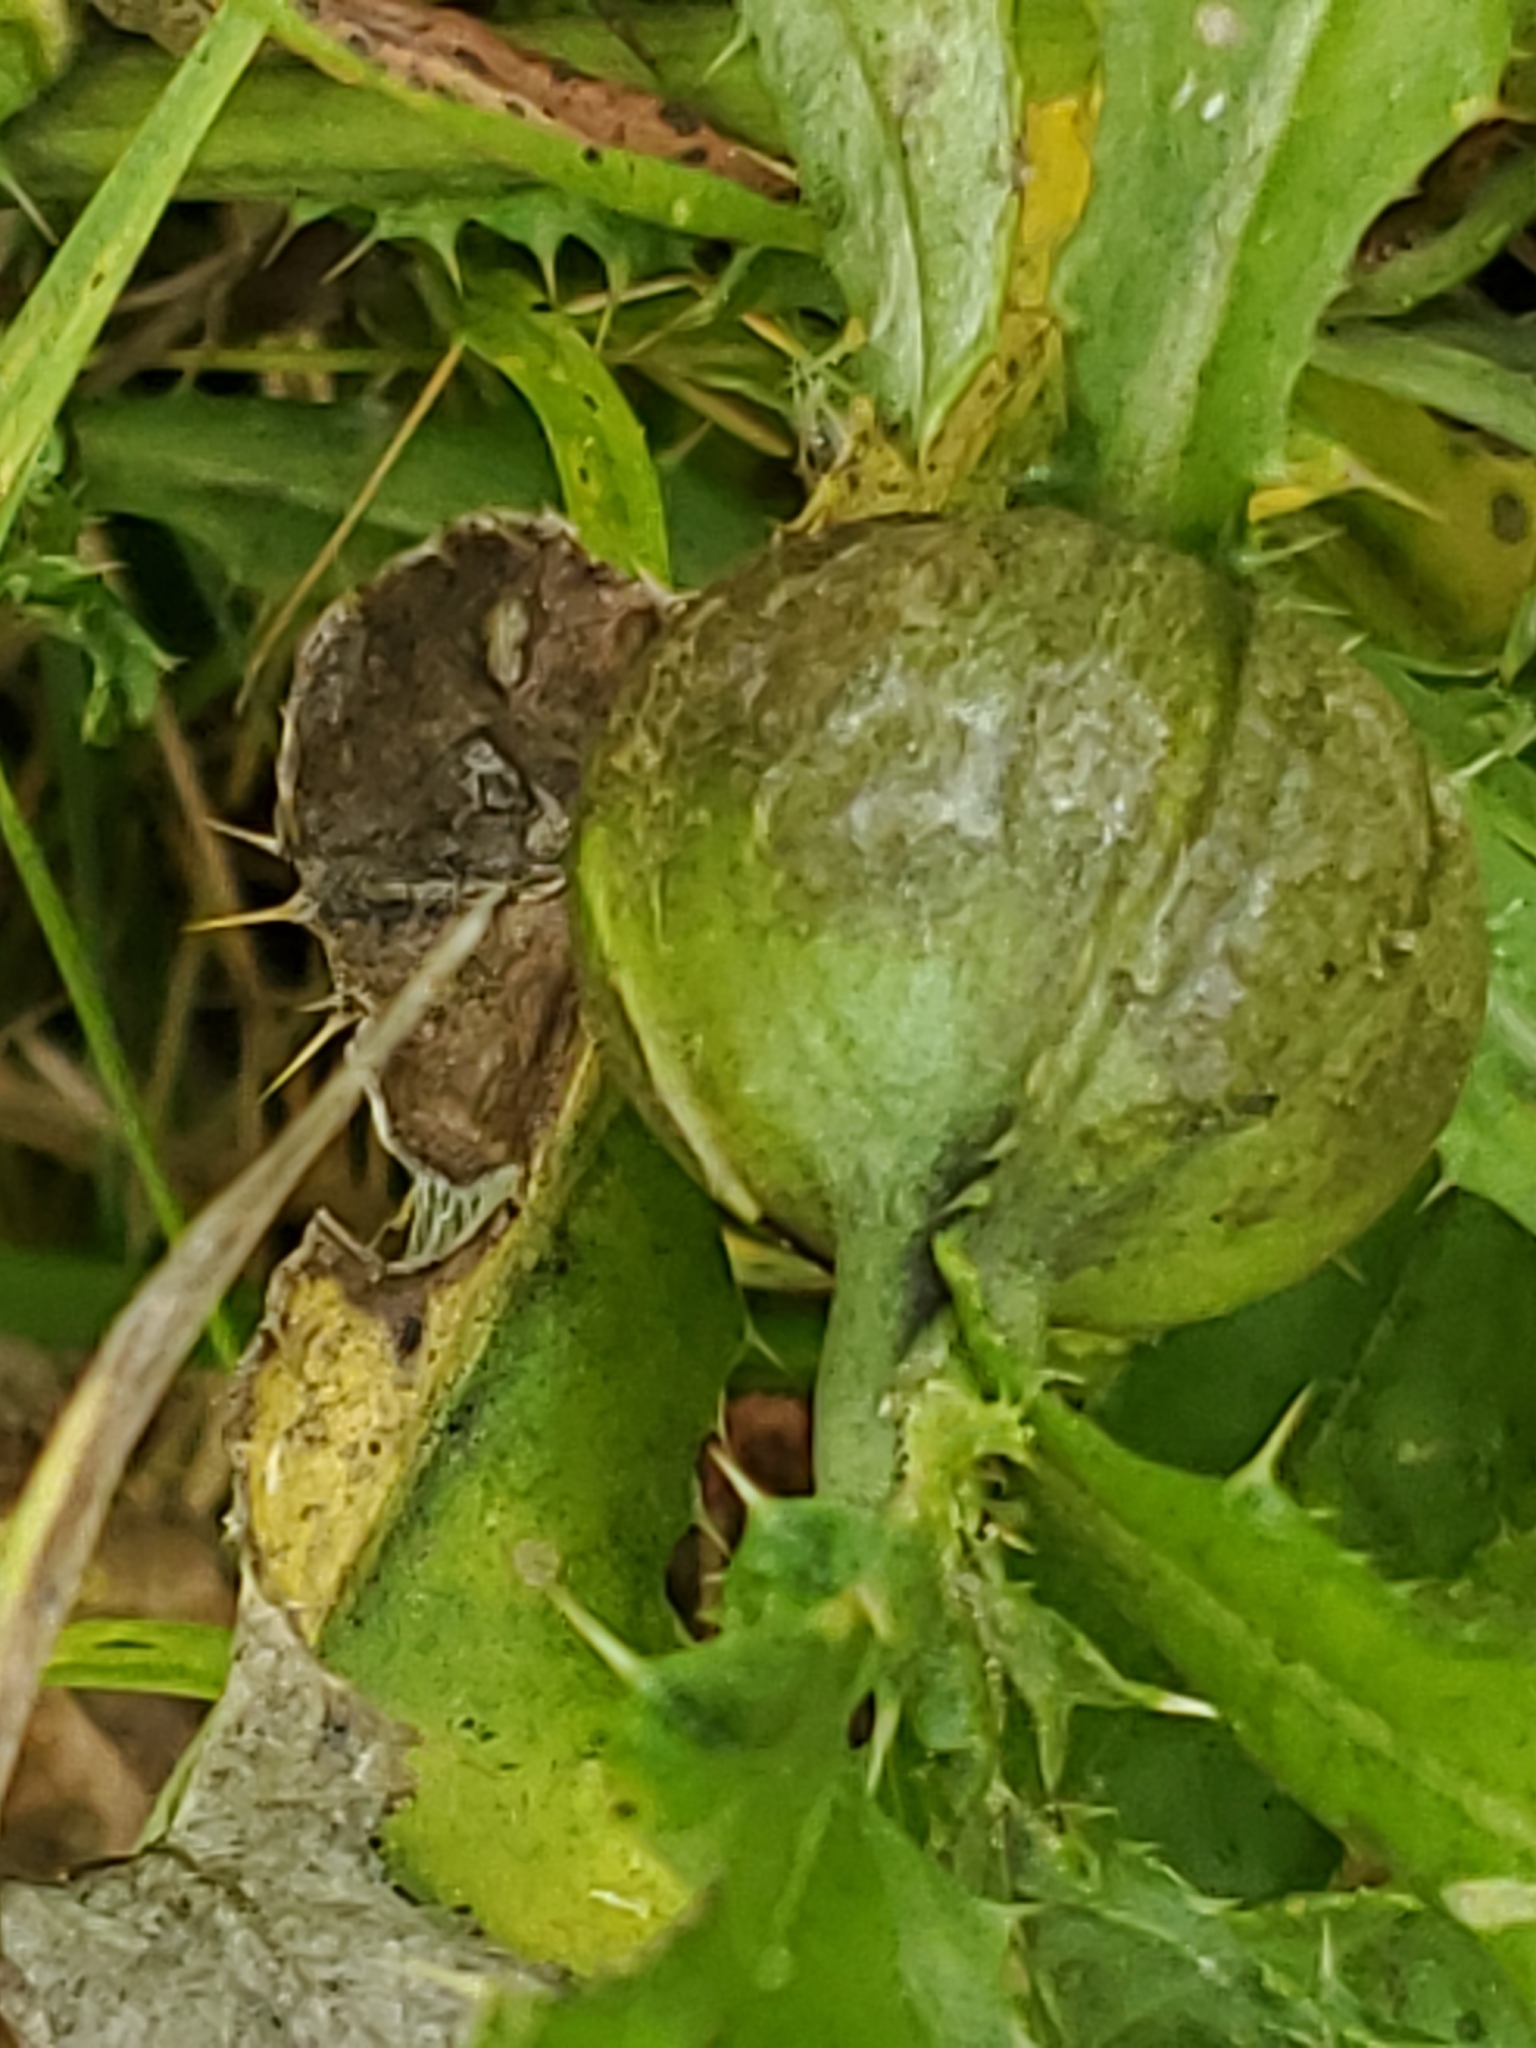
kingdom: Animalia
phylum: Arthropoda
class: Insecta
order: Diptera
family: Tephritidae
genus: Urophora
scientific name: Urophora cardui
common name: Fruit fly
